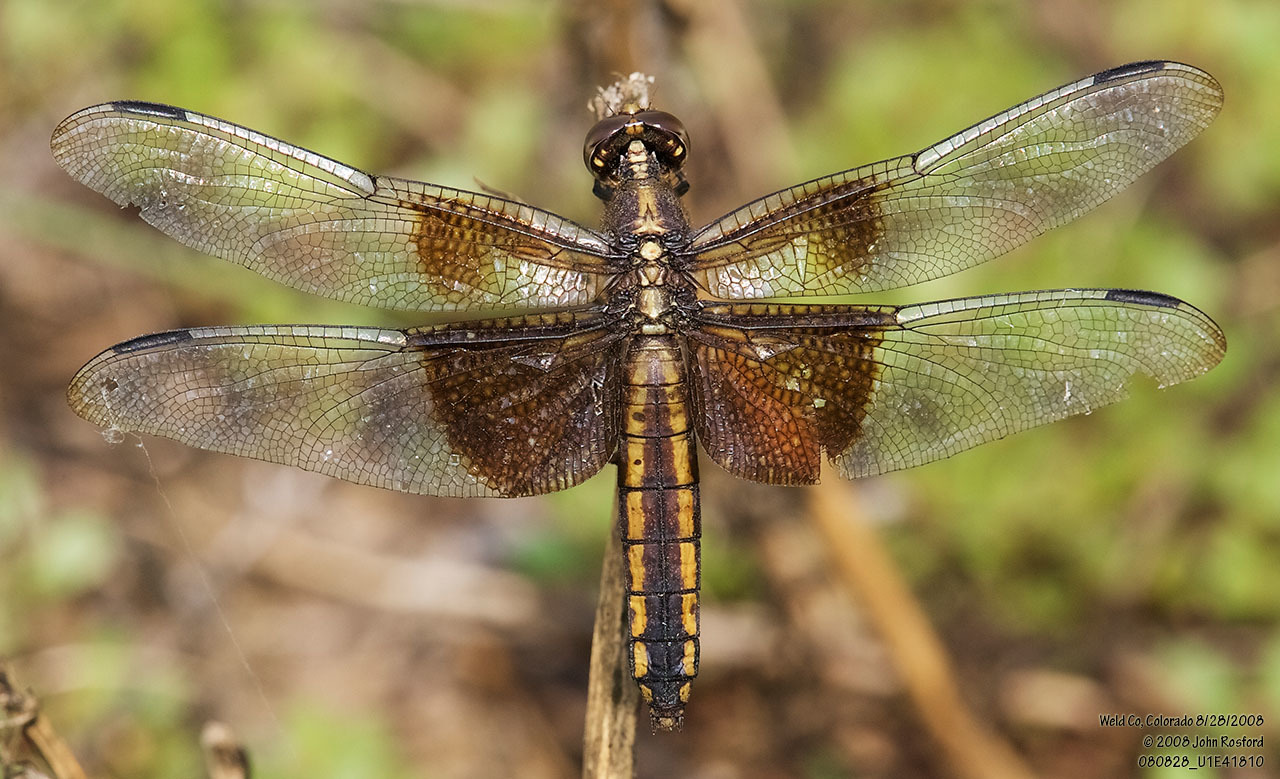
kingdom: Animalia
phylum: Arthropoda
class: Insecta
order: Odonata
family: Libellulidae
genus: Libellula
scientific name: Libellula luctuosa
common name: Widow skimmer
